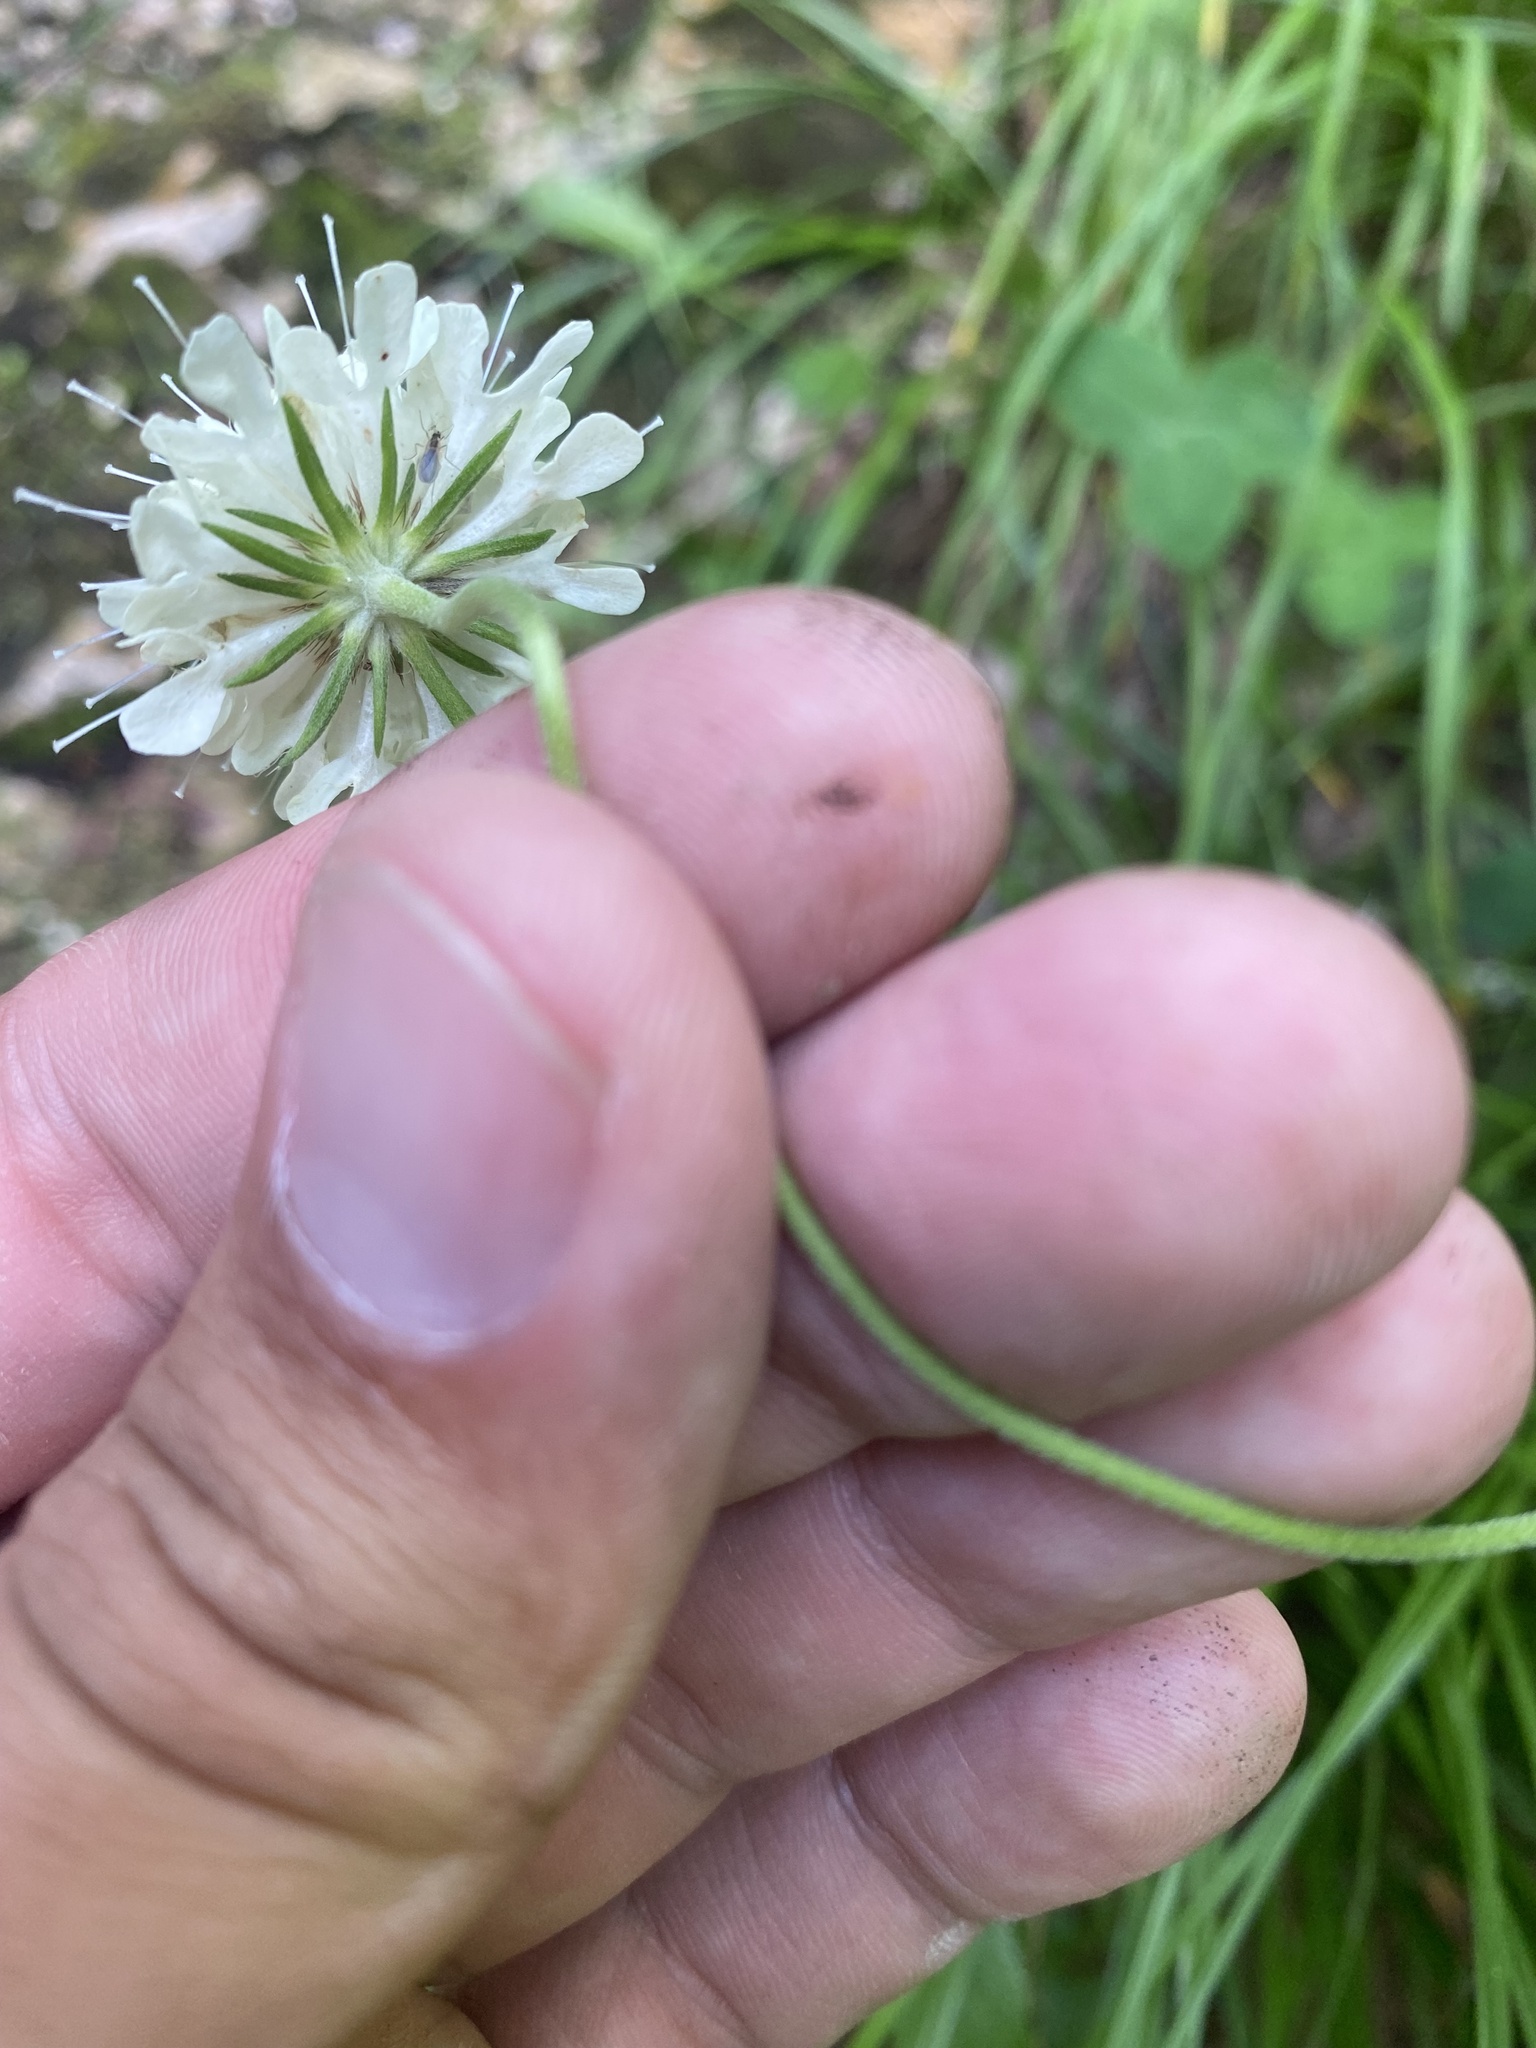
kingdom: Plantae
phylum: Tracheophyta
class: Magnoliopsida
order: Dipsacales
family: Caprifoliaceae
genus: Scabiosa
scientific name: Scabiosa ochroleuca
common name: Cream pincushions
